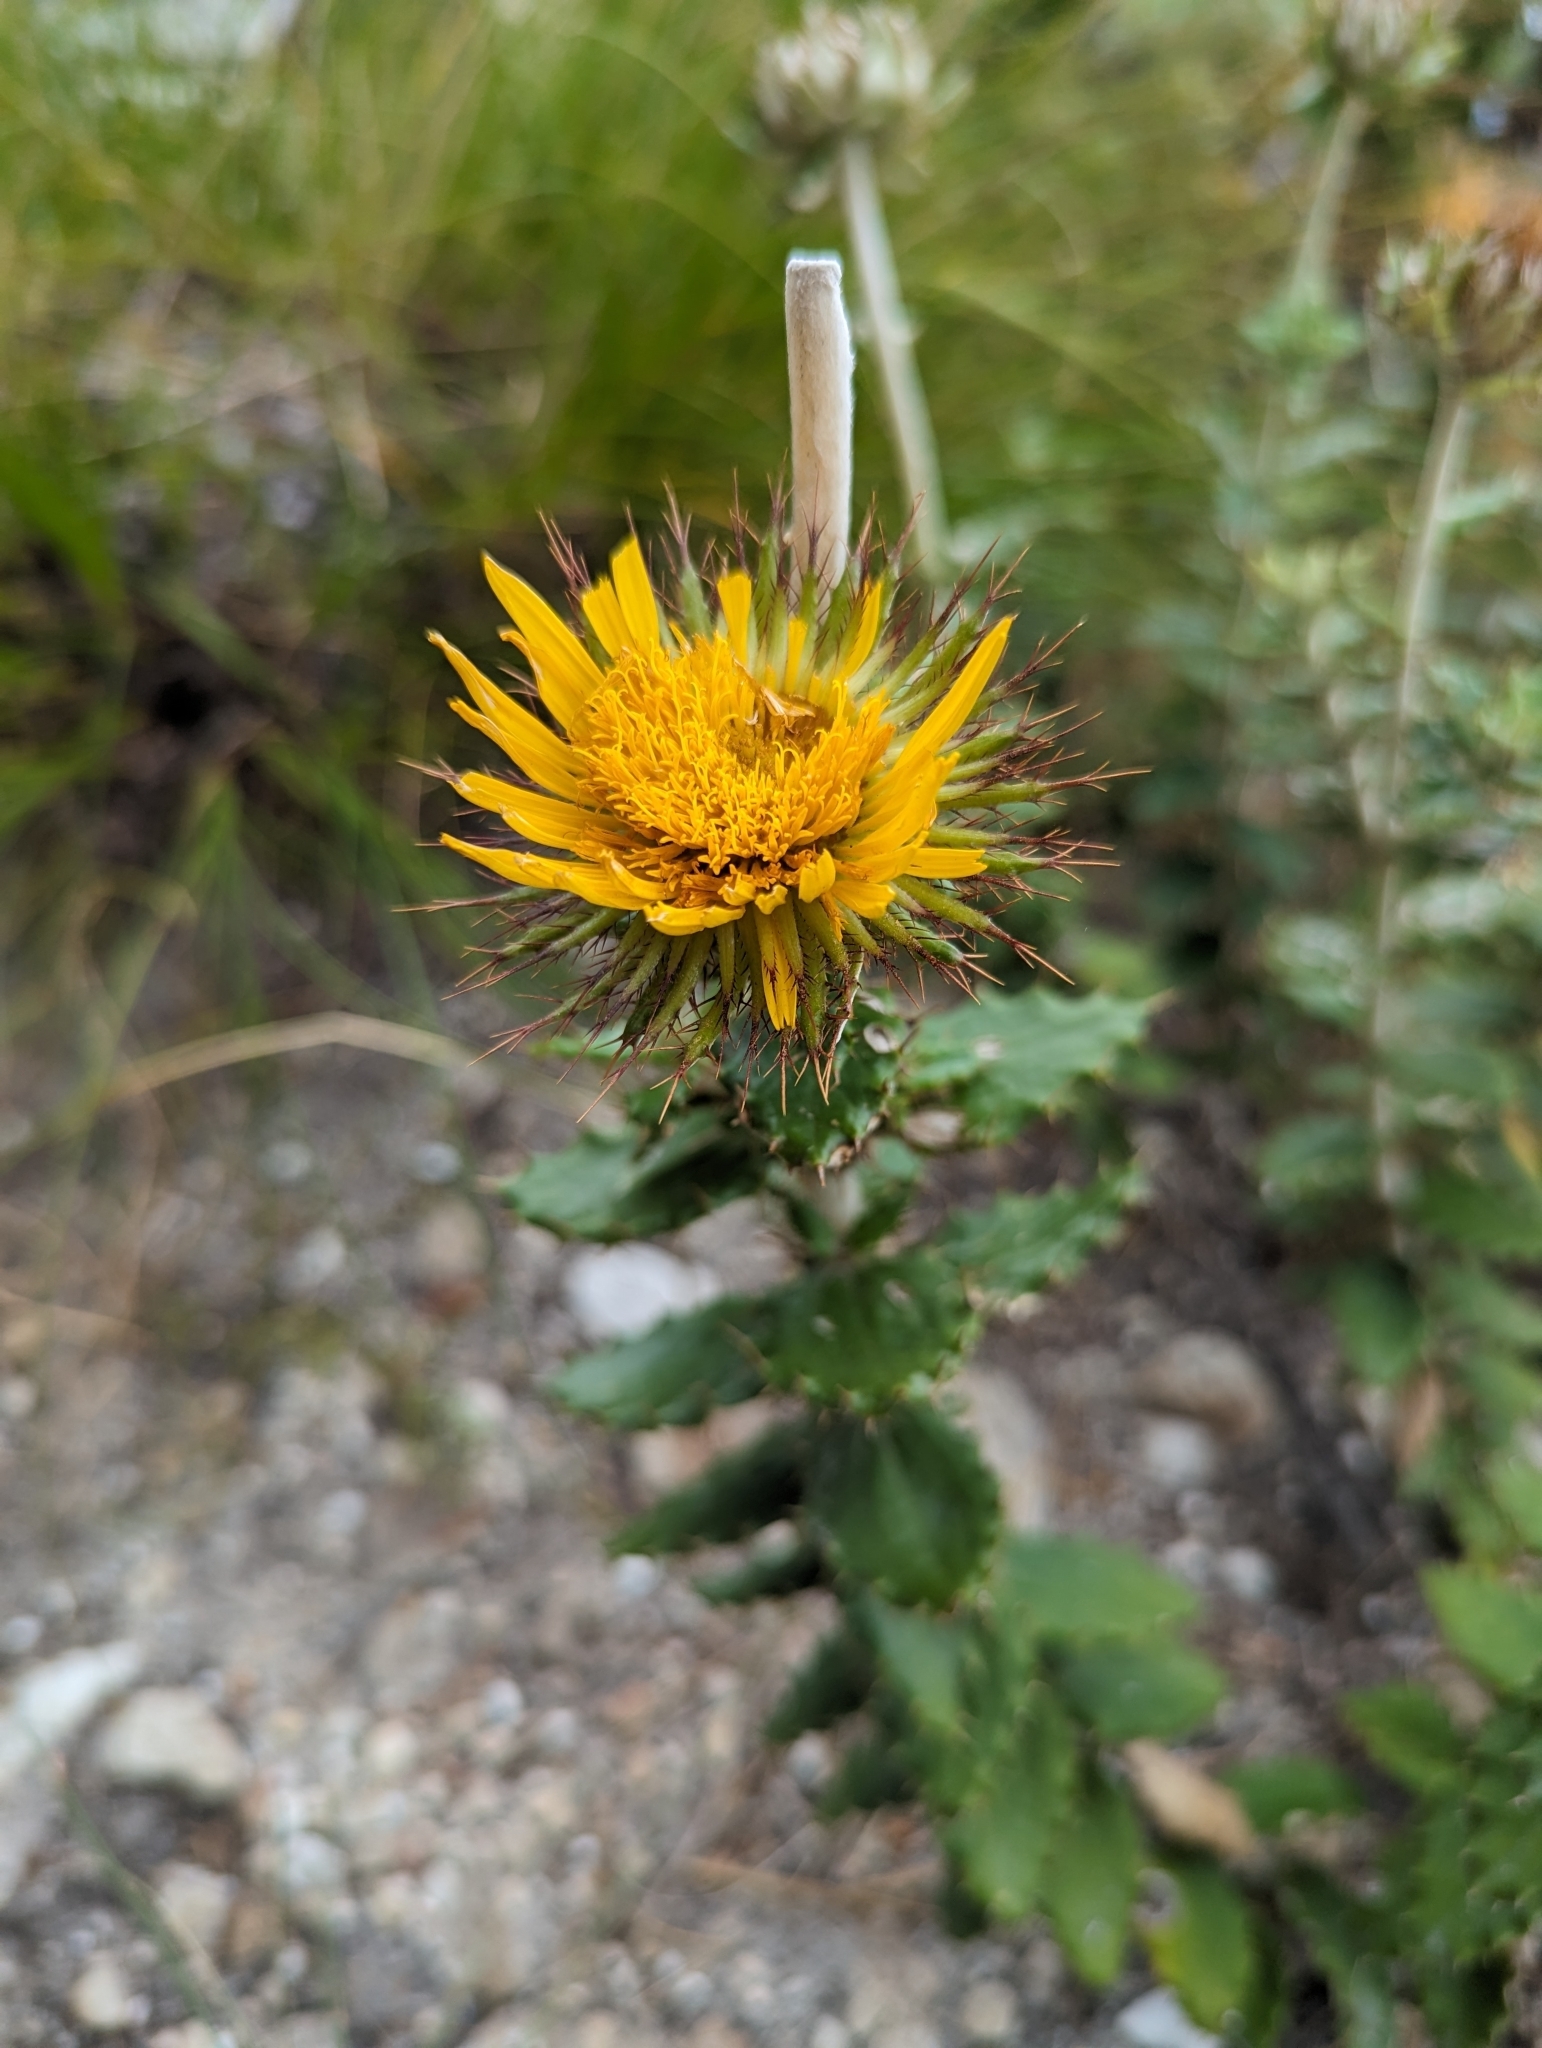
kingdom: Plantae
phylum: Tracheophyta
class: Magnoliopsida
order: Asterales
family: Asteraceae
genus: Berkheya
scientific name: Berkheya barbata
